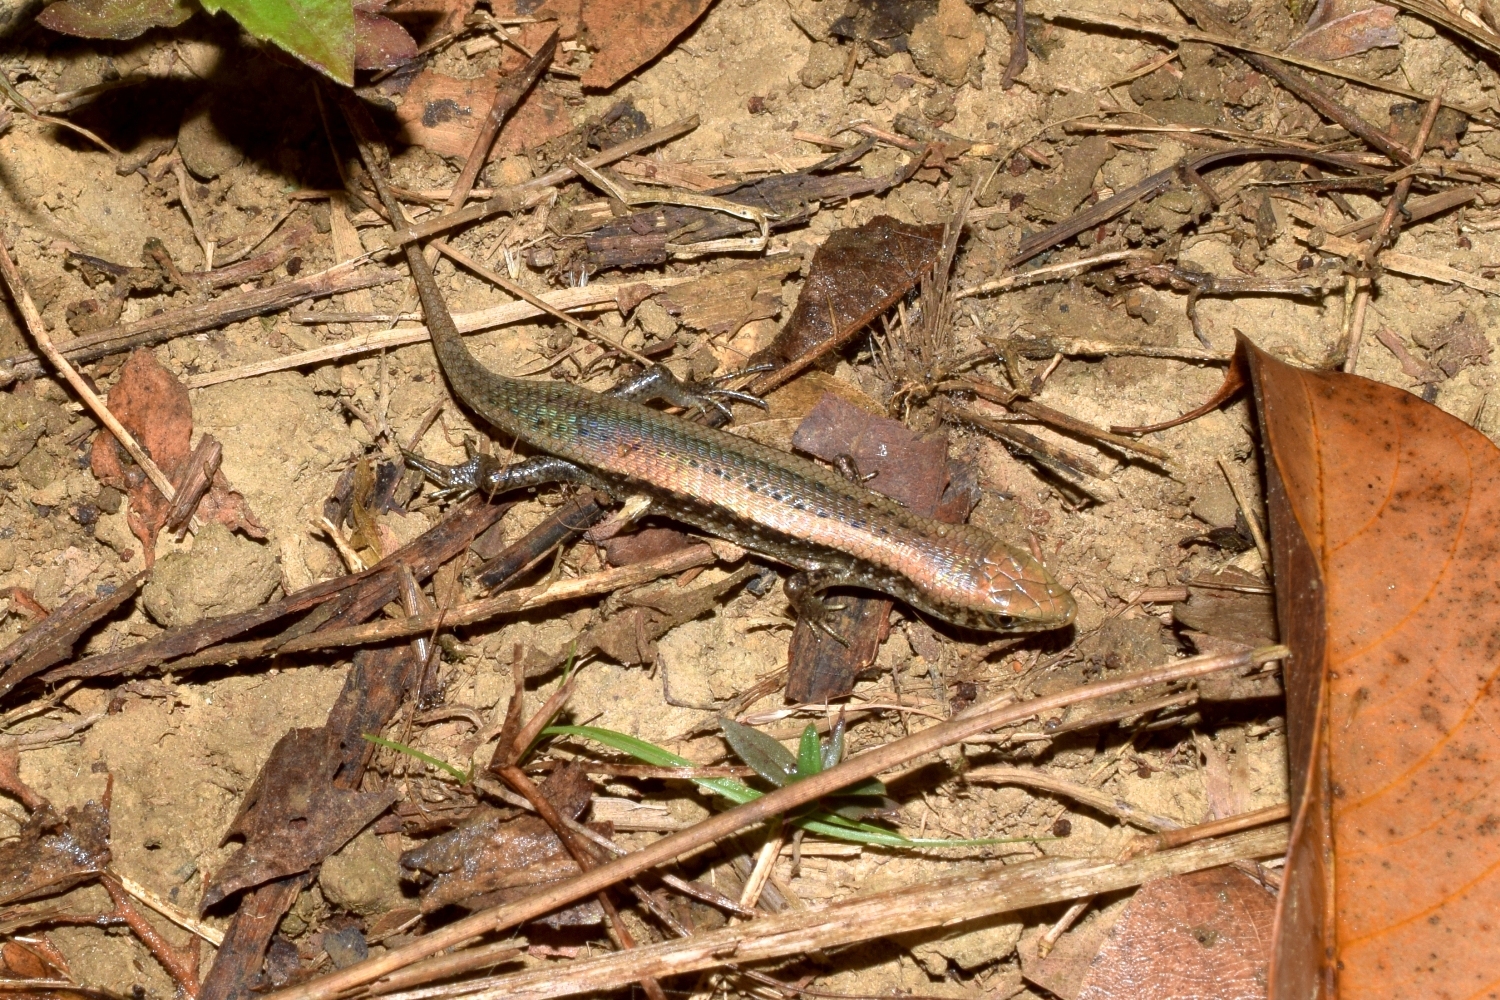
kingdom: Animalia
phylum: Chordata
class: Squamata
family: Scincidae
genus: Eutropis
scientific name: Eutropis macularia
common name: Bronze mabuya
